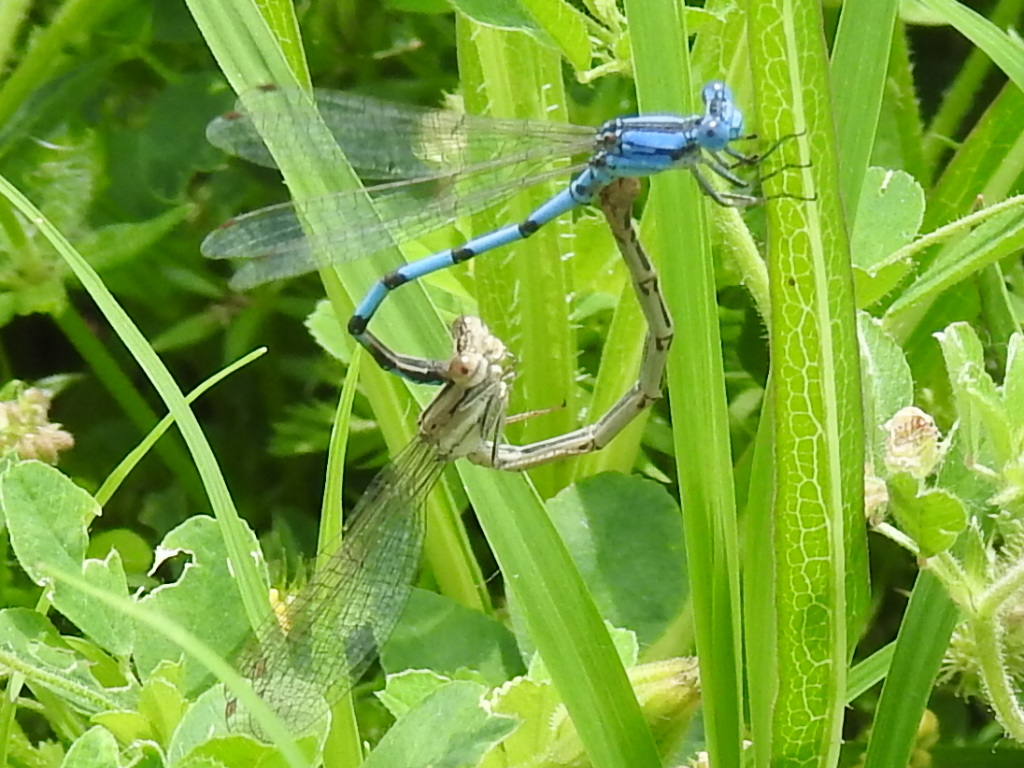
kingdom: Animalia
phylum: Arthropoda
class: Insecta
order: Odonata
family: Coenagrionidae
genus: Argia
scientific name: Argia nahuana
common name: Aztec dancer
